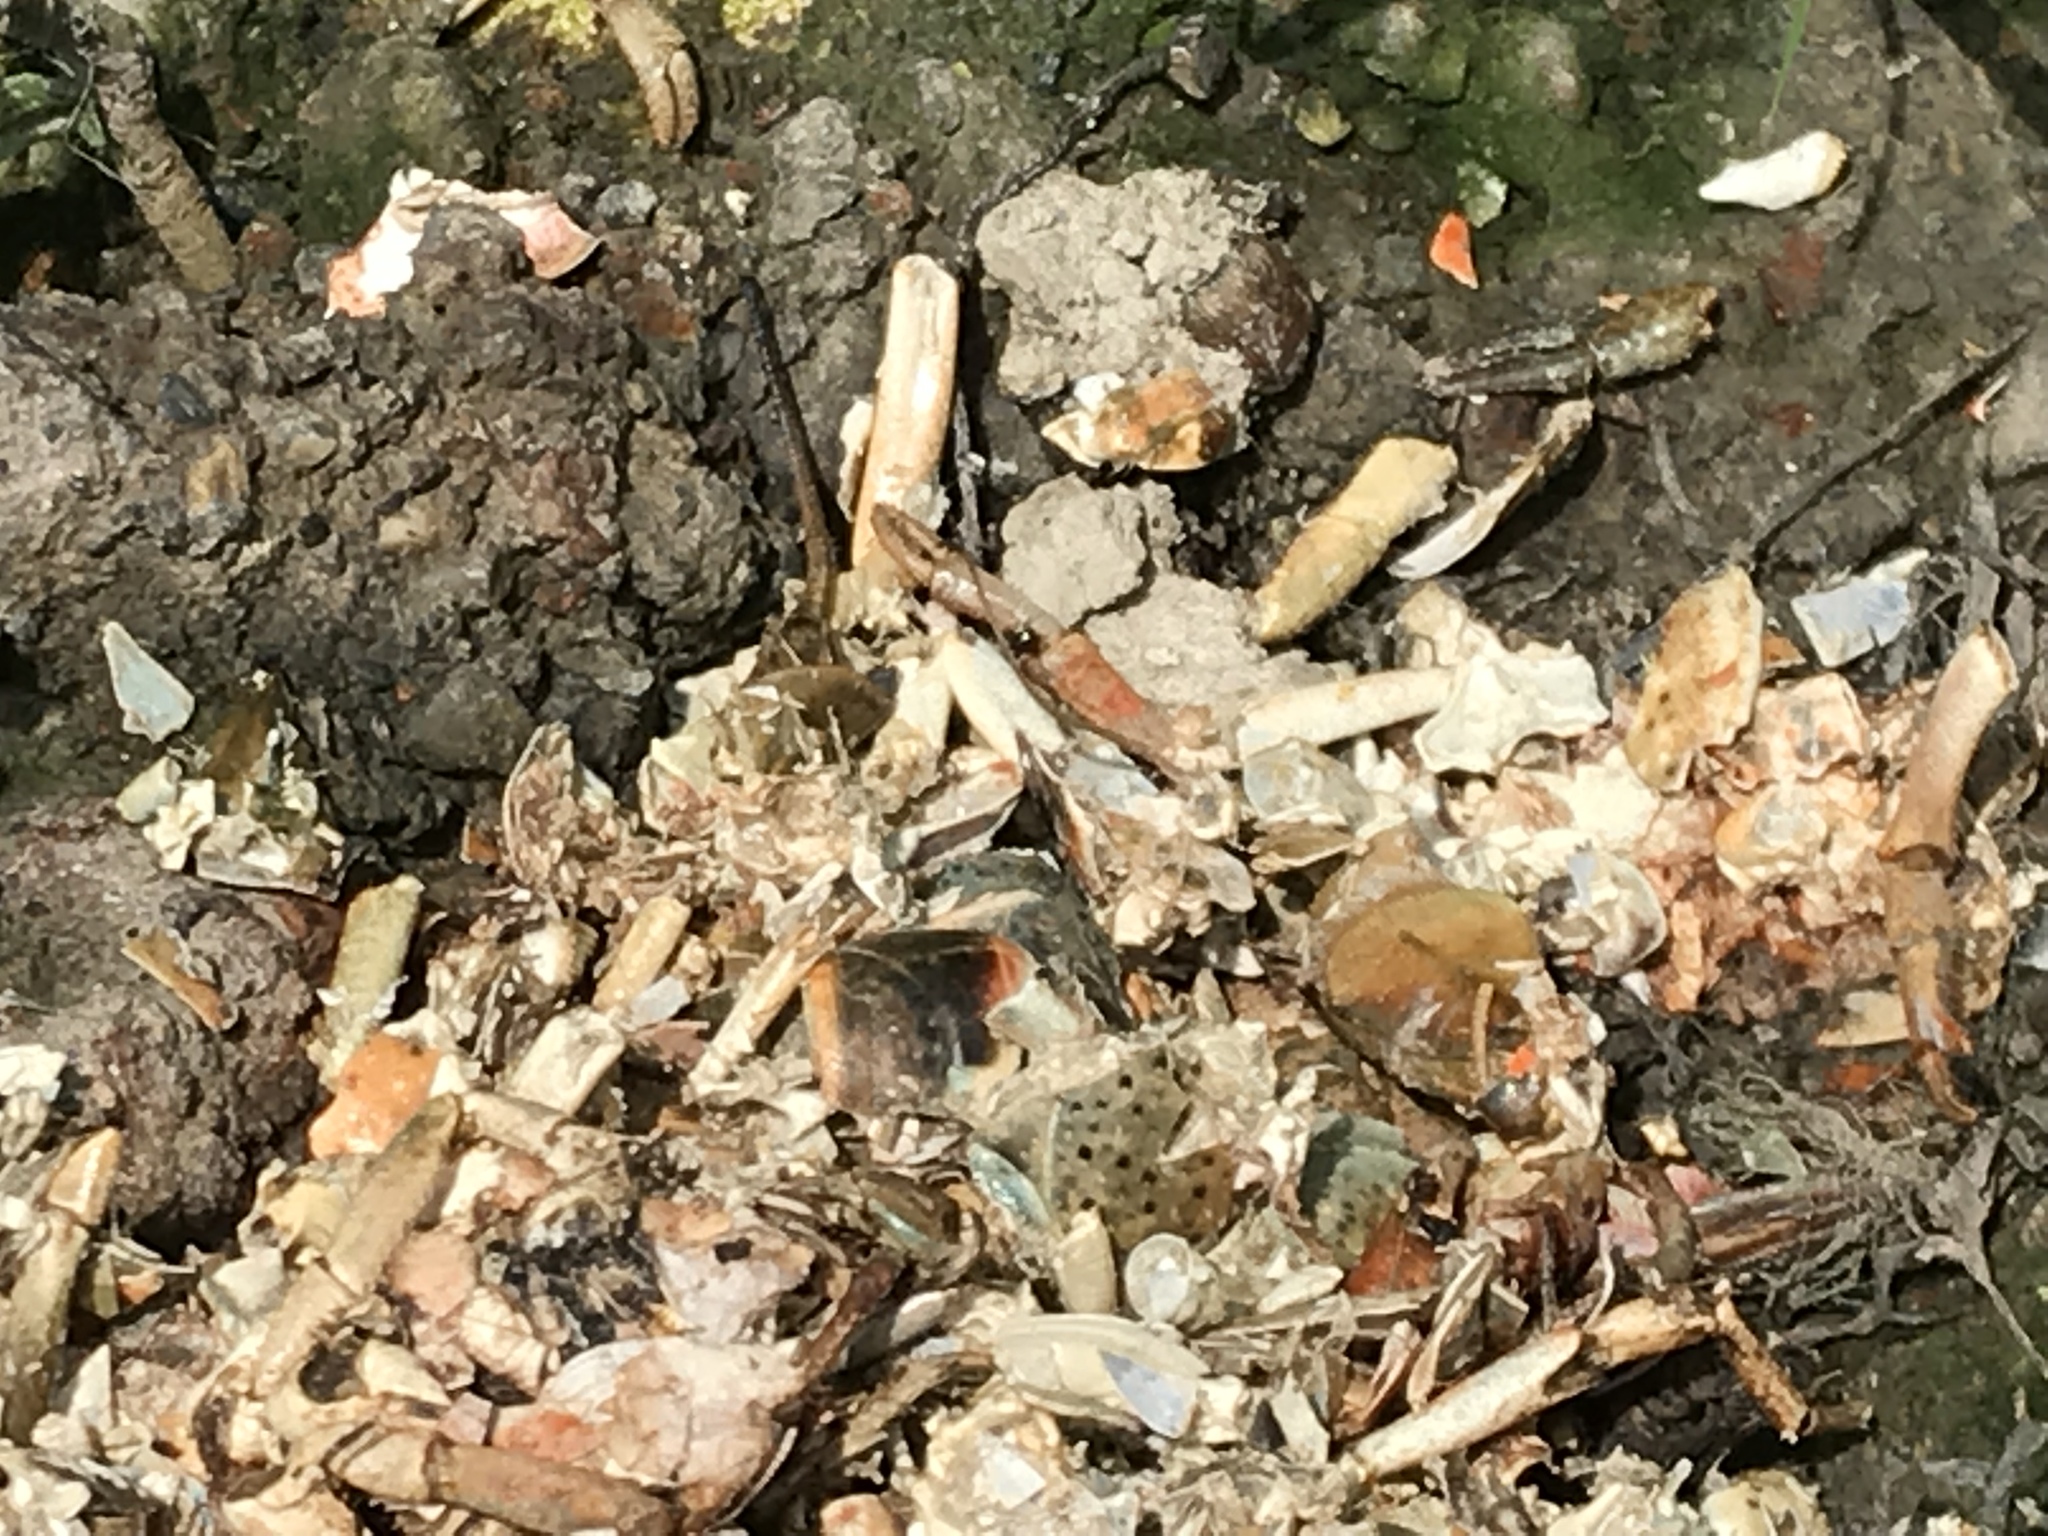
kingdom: Animalia
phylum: Arthropoda
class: Malacostraca
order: Decapoda
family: Cambaridae
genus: Procambarus
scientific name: Procambarus clarkii
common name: Red swamp crayfish
